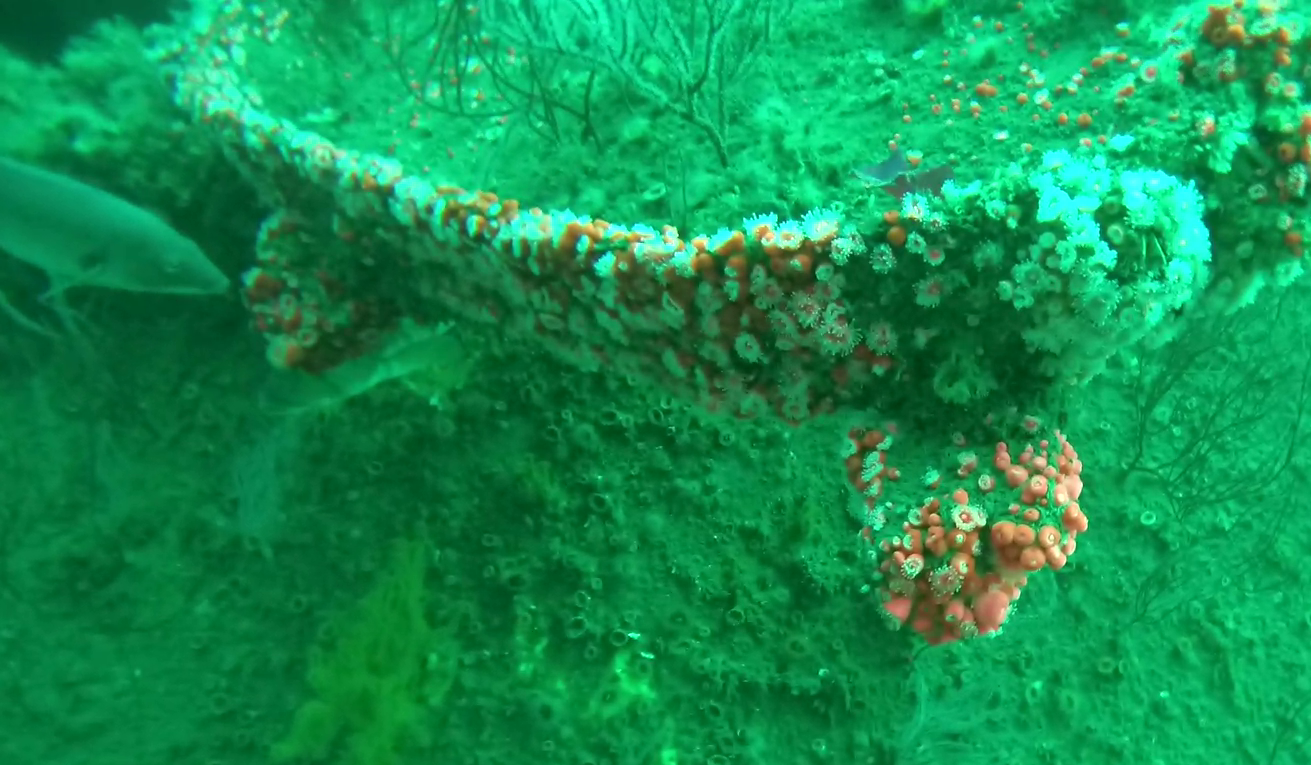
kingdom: Animalia
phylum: Cnidaria
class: Anthozoa
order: Corallimorpharia
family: Corallimorphidae
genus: Corynactis
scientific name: Corynactis californica
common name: Strawberry corallimorpharian
